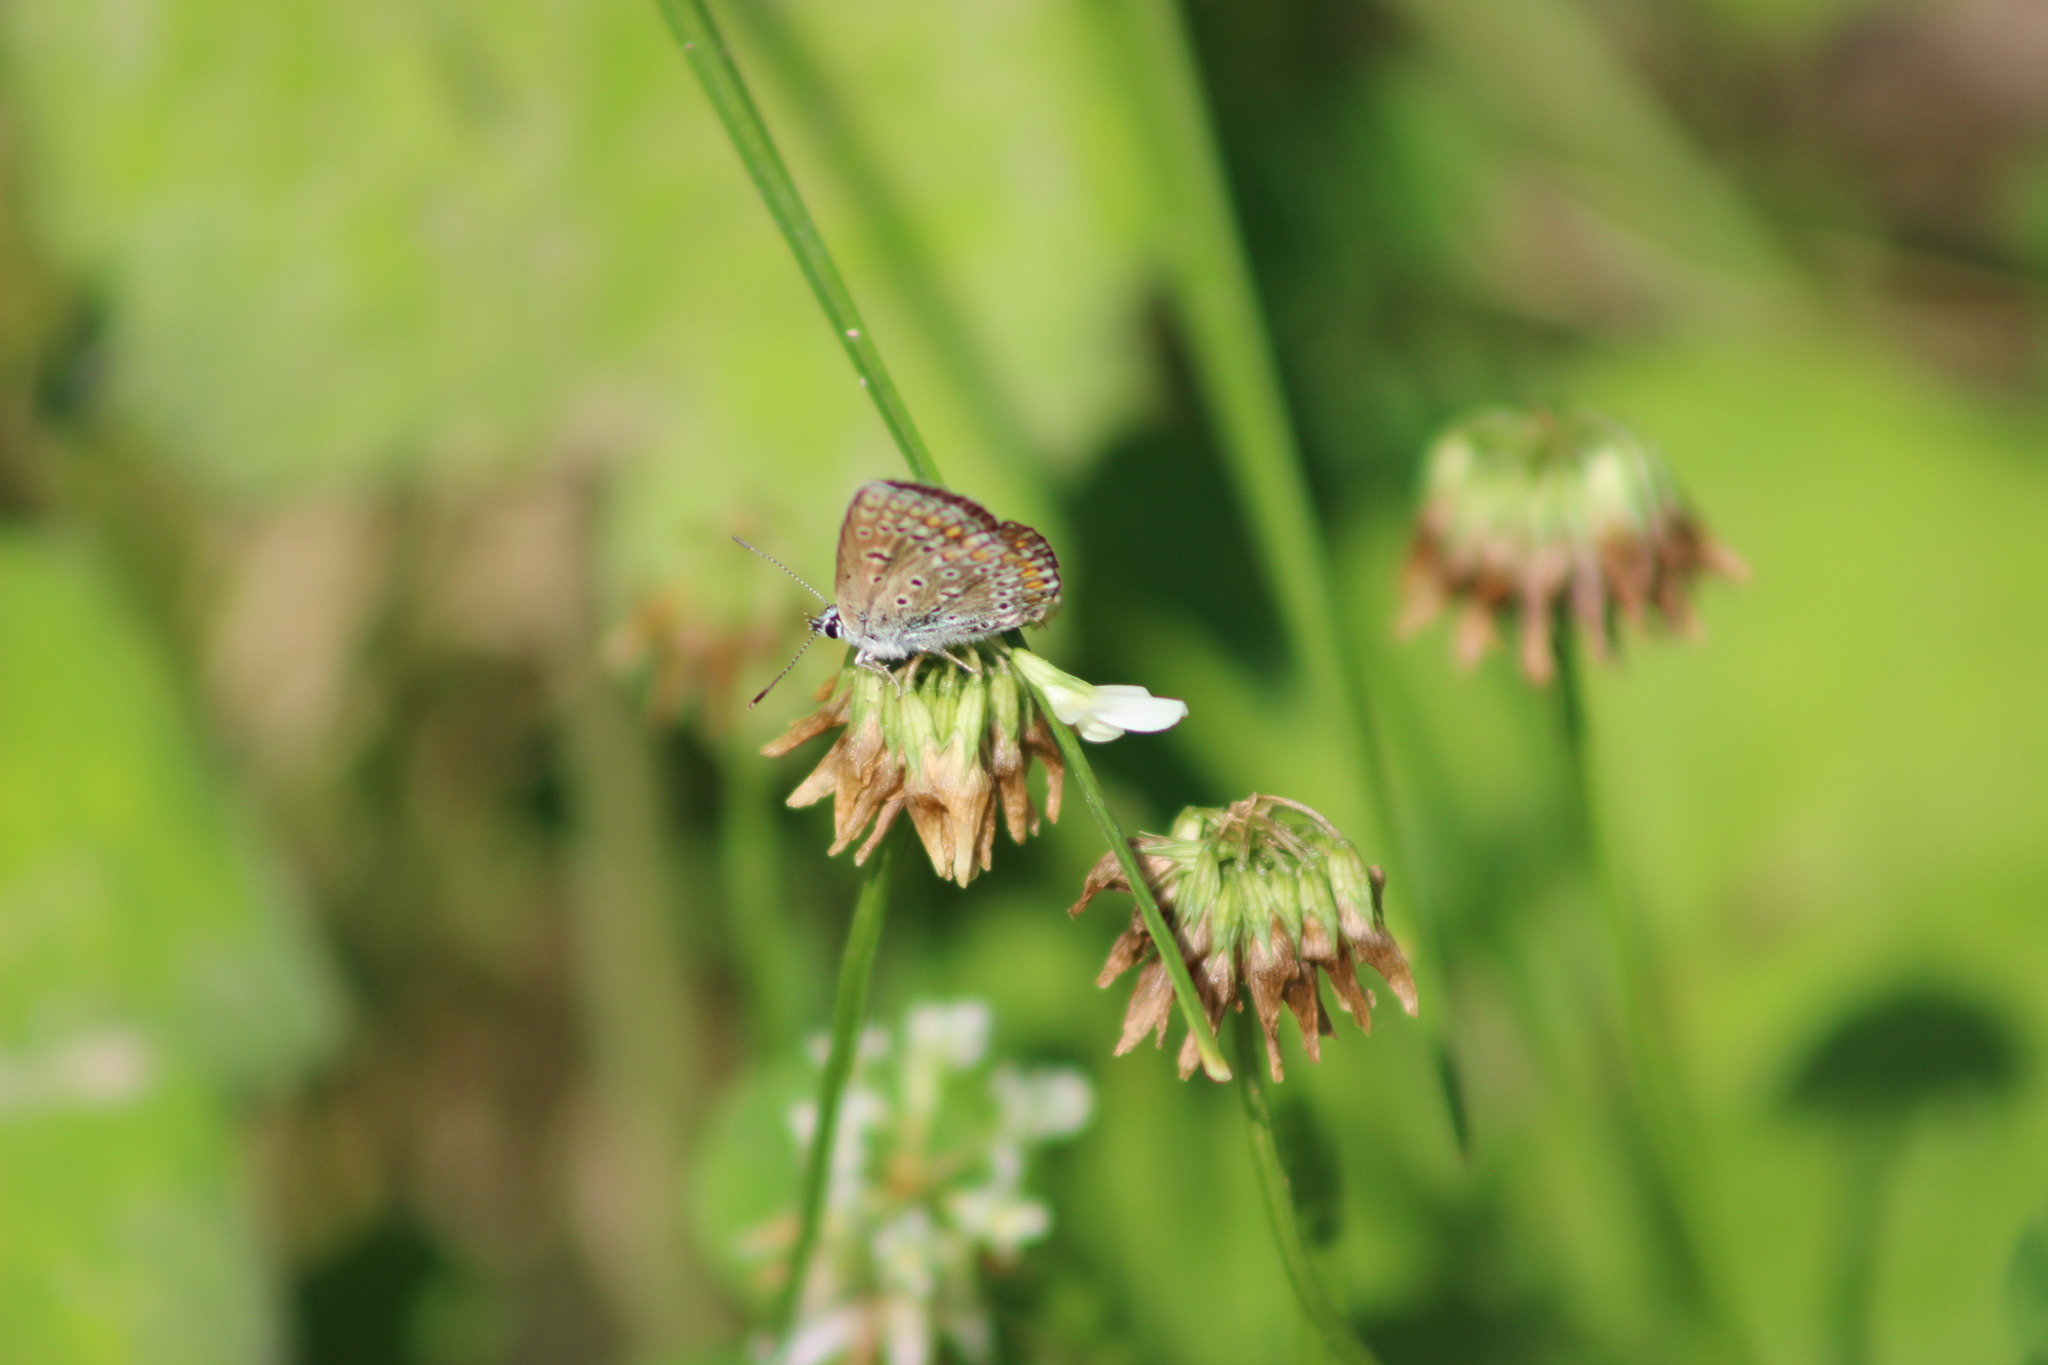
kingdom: Animalia
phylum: Arthropoda
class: Insecta
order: Lepidoptera
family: Lycaenidae
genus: Polyommatus
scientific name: Polyommatus icarus
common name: Common blue
